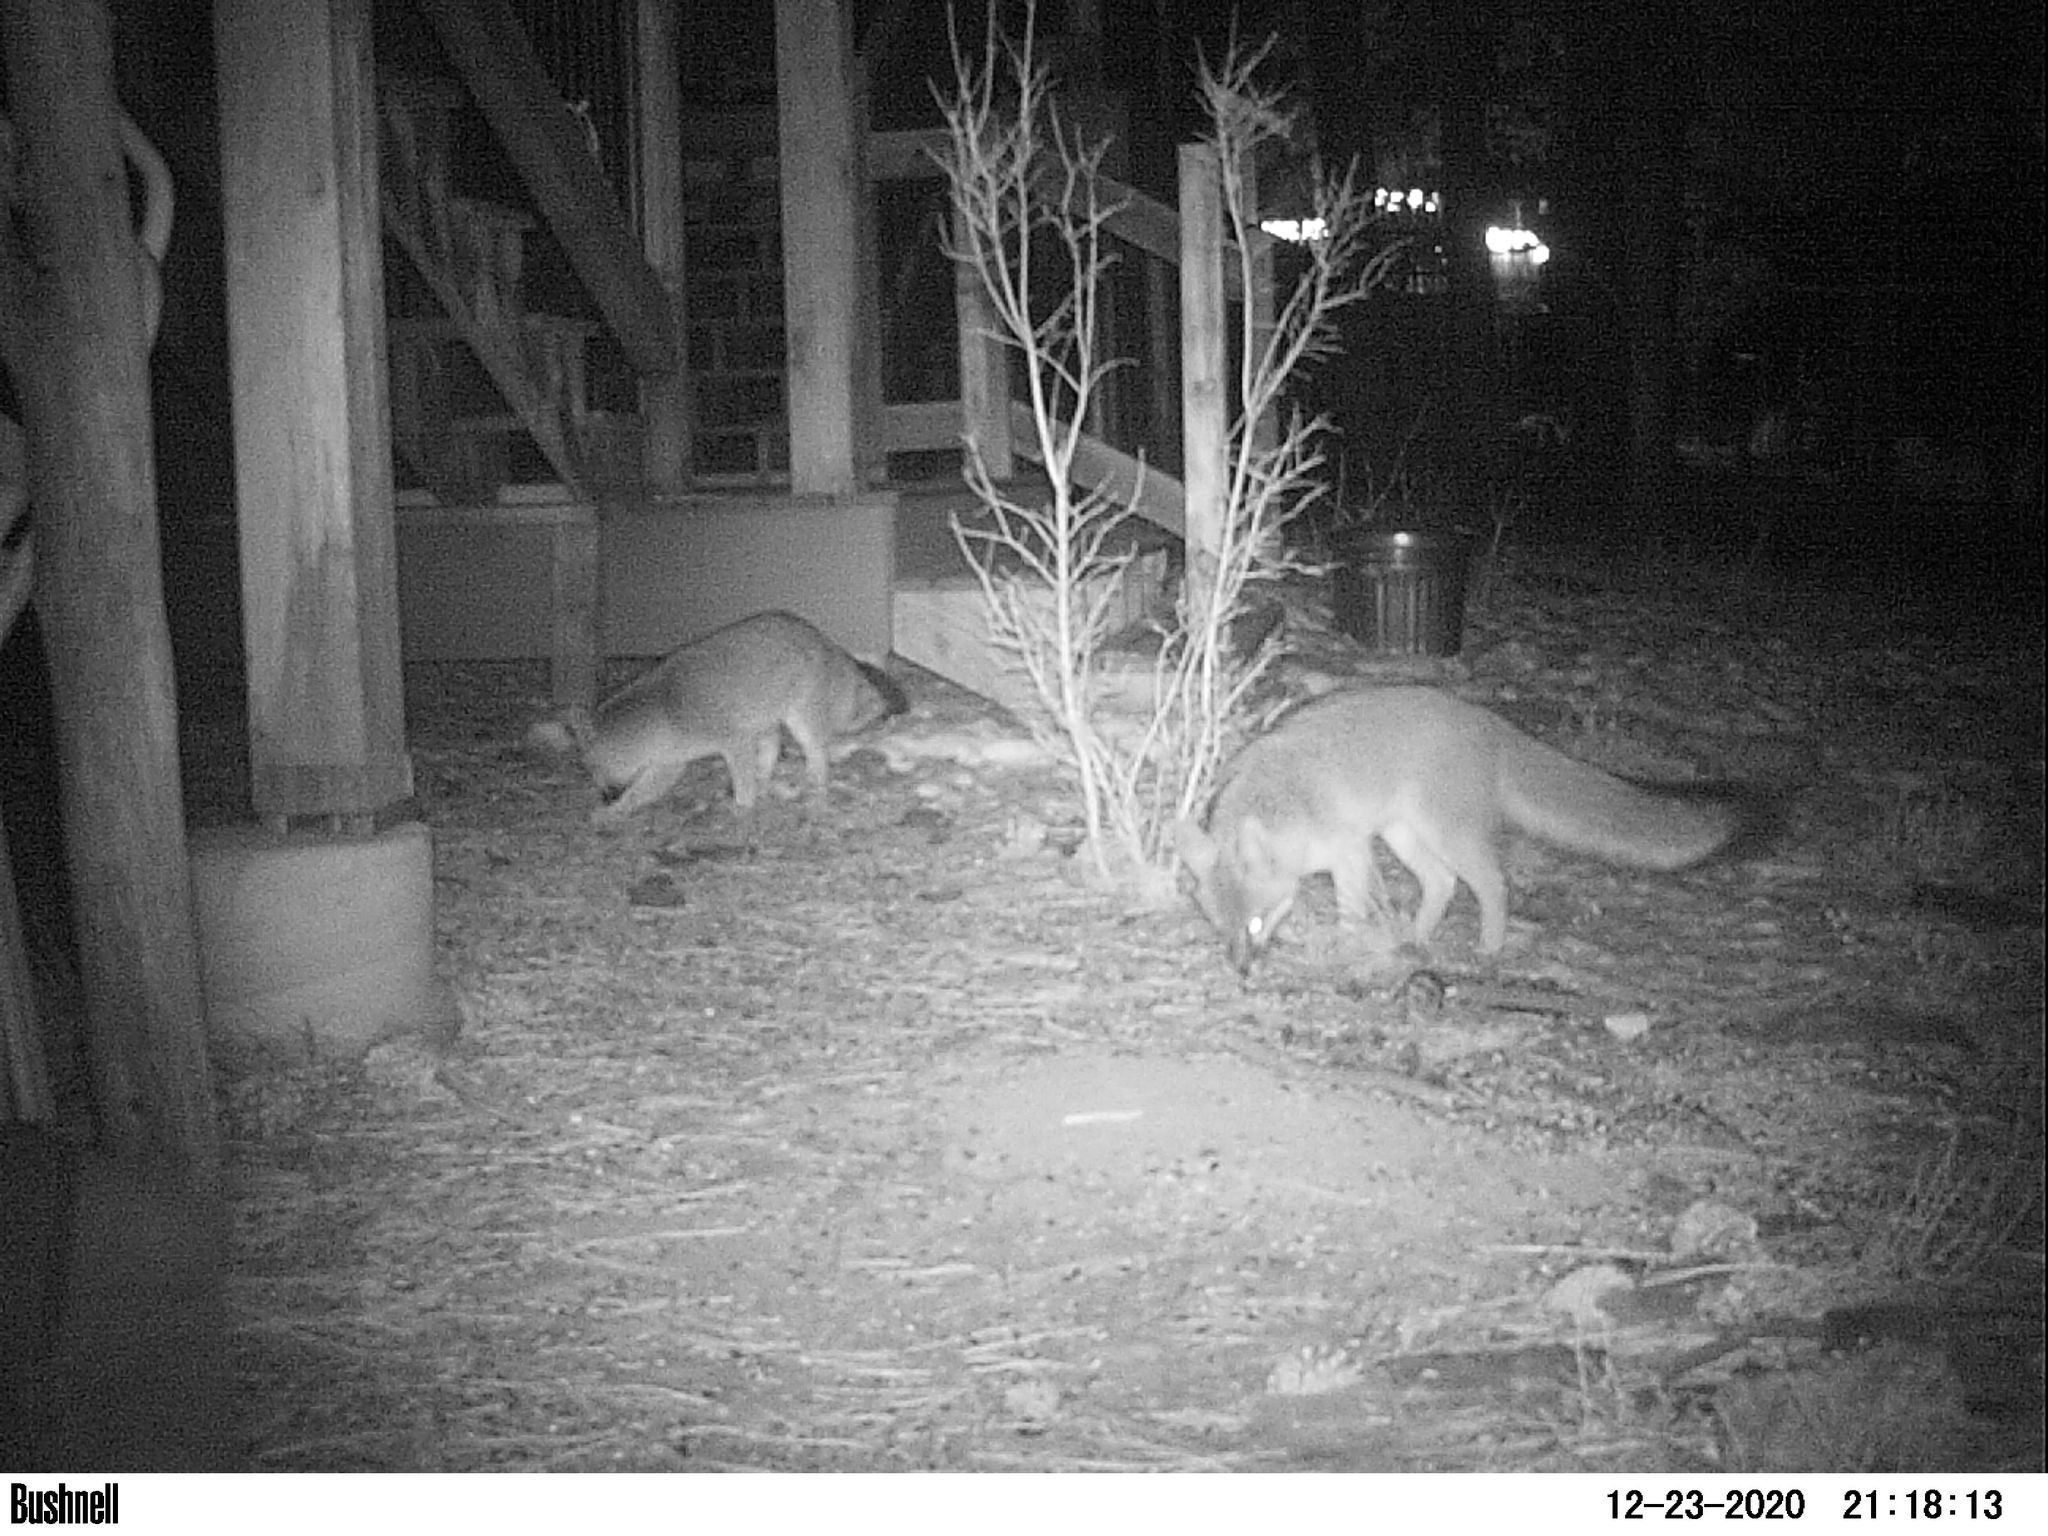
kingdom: Animalia
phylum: Chordata
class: Mammalia
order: Carnivora
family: Canidae
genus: Urocyon
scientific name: Urocyon cinereoargenteus
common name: Gray fox
